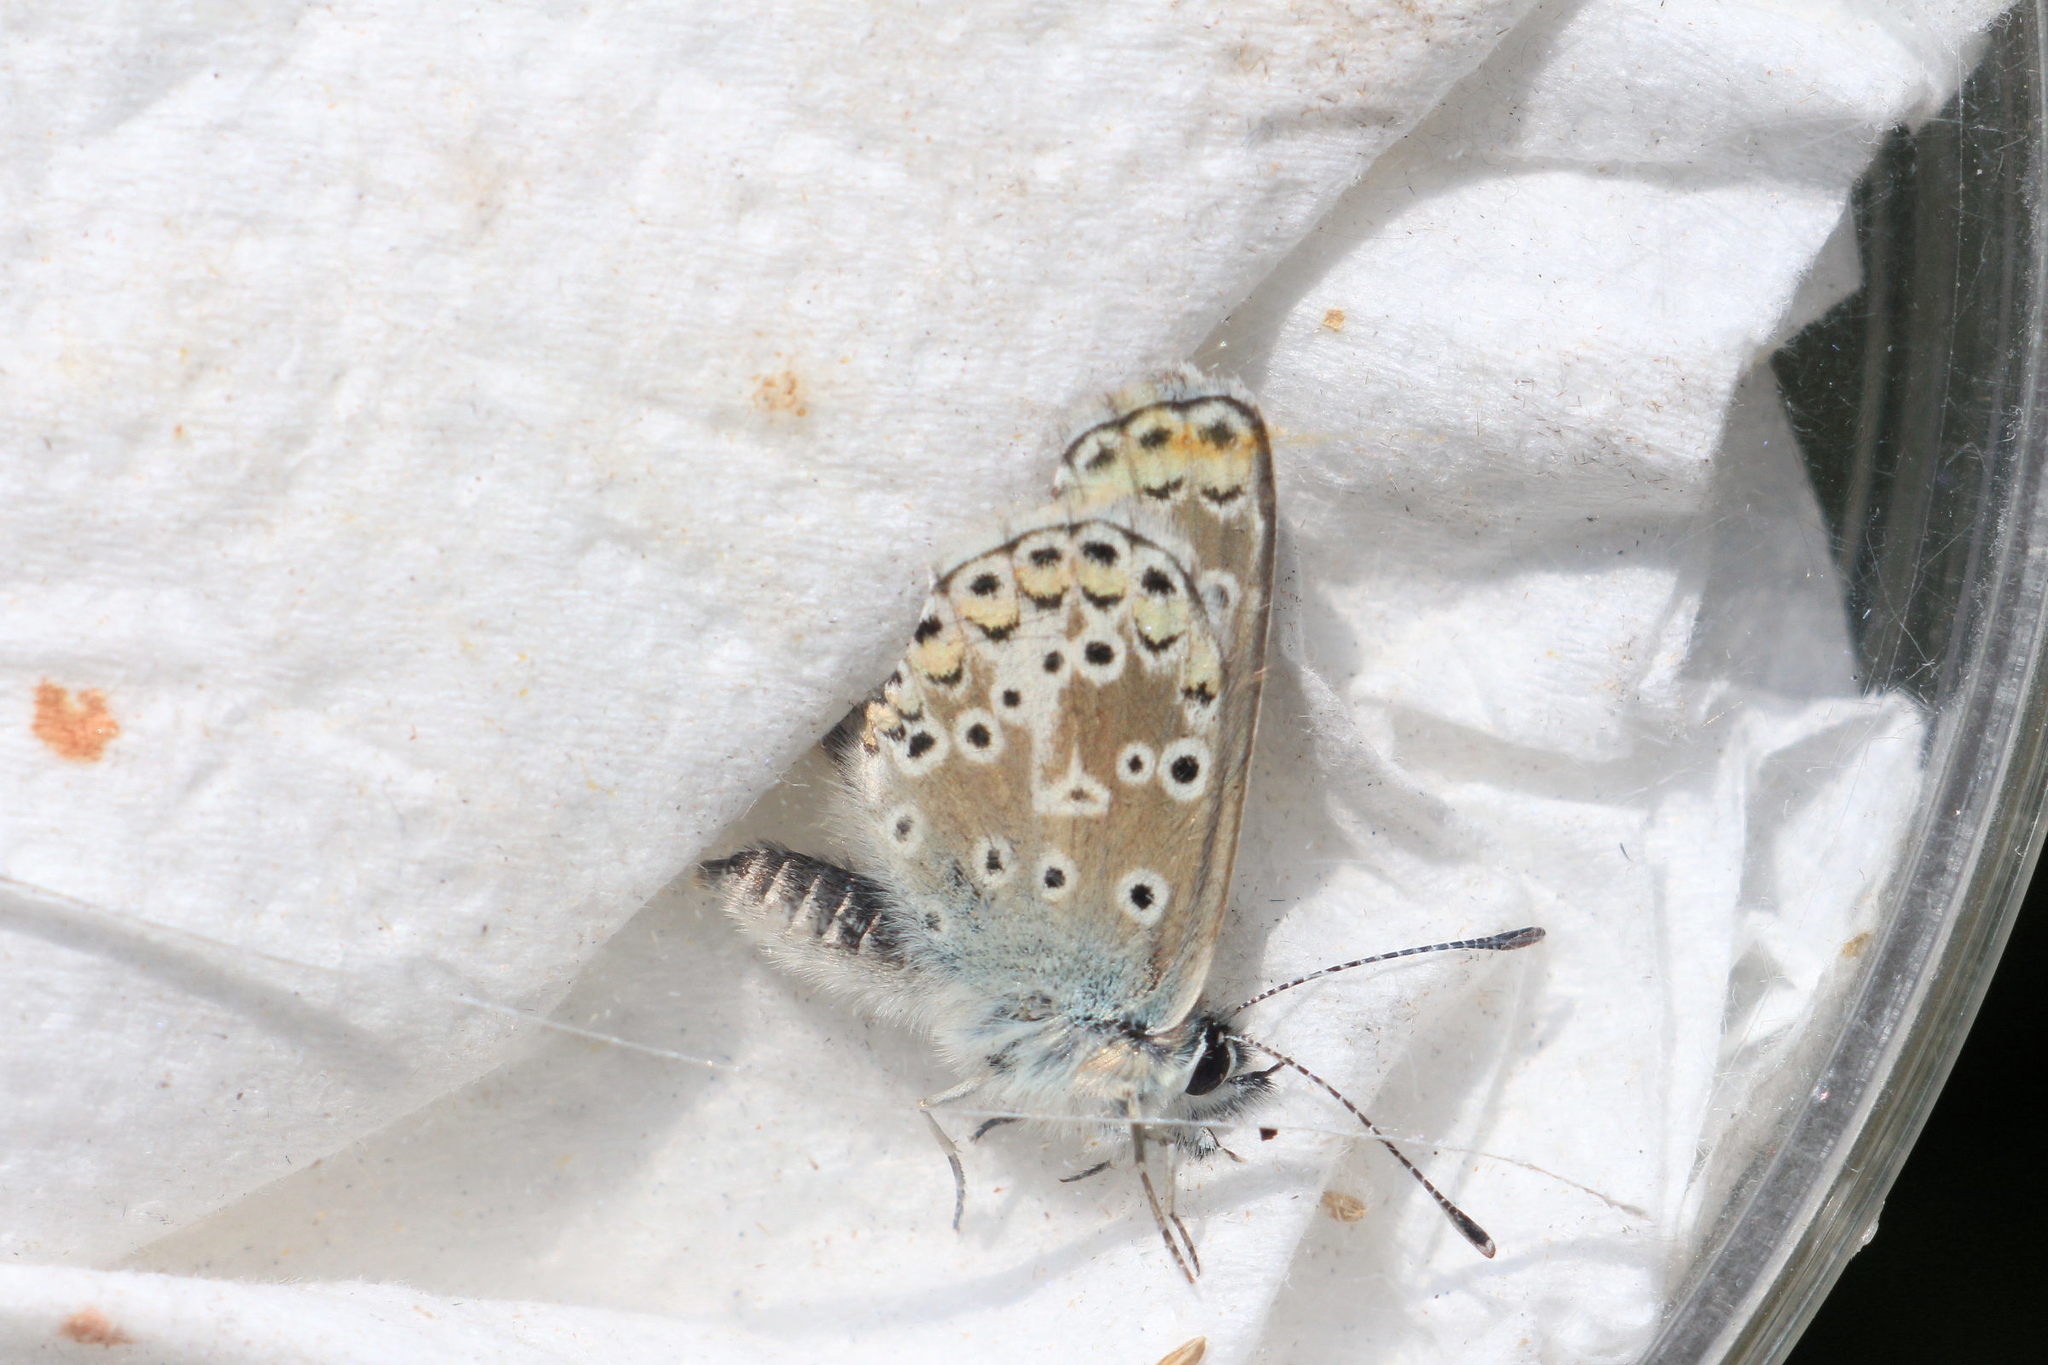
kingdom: Animalia
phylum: Arthropoda
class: Insecta
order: Lepidoptera
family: Lycaenidae
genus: Aricia
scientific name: Aricia agestis
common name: Brown argus
